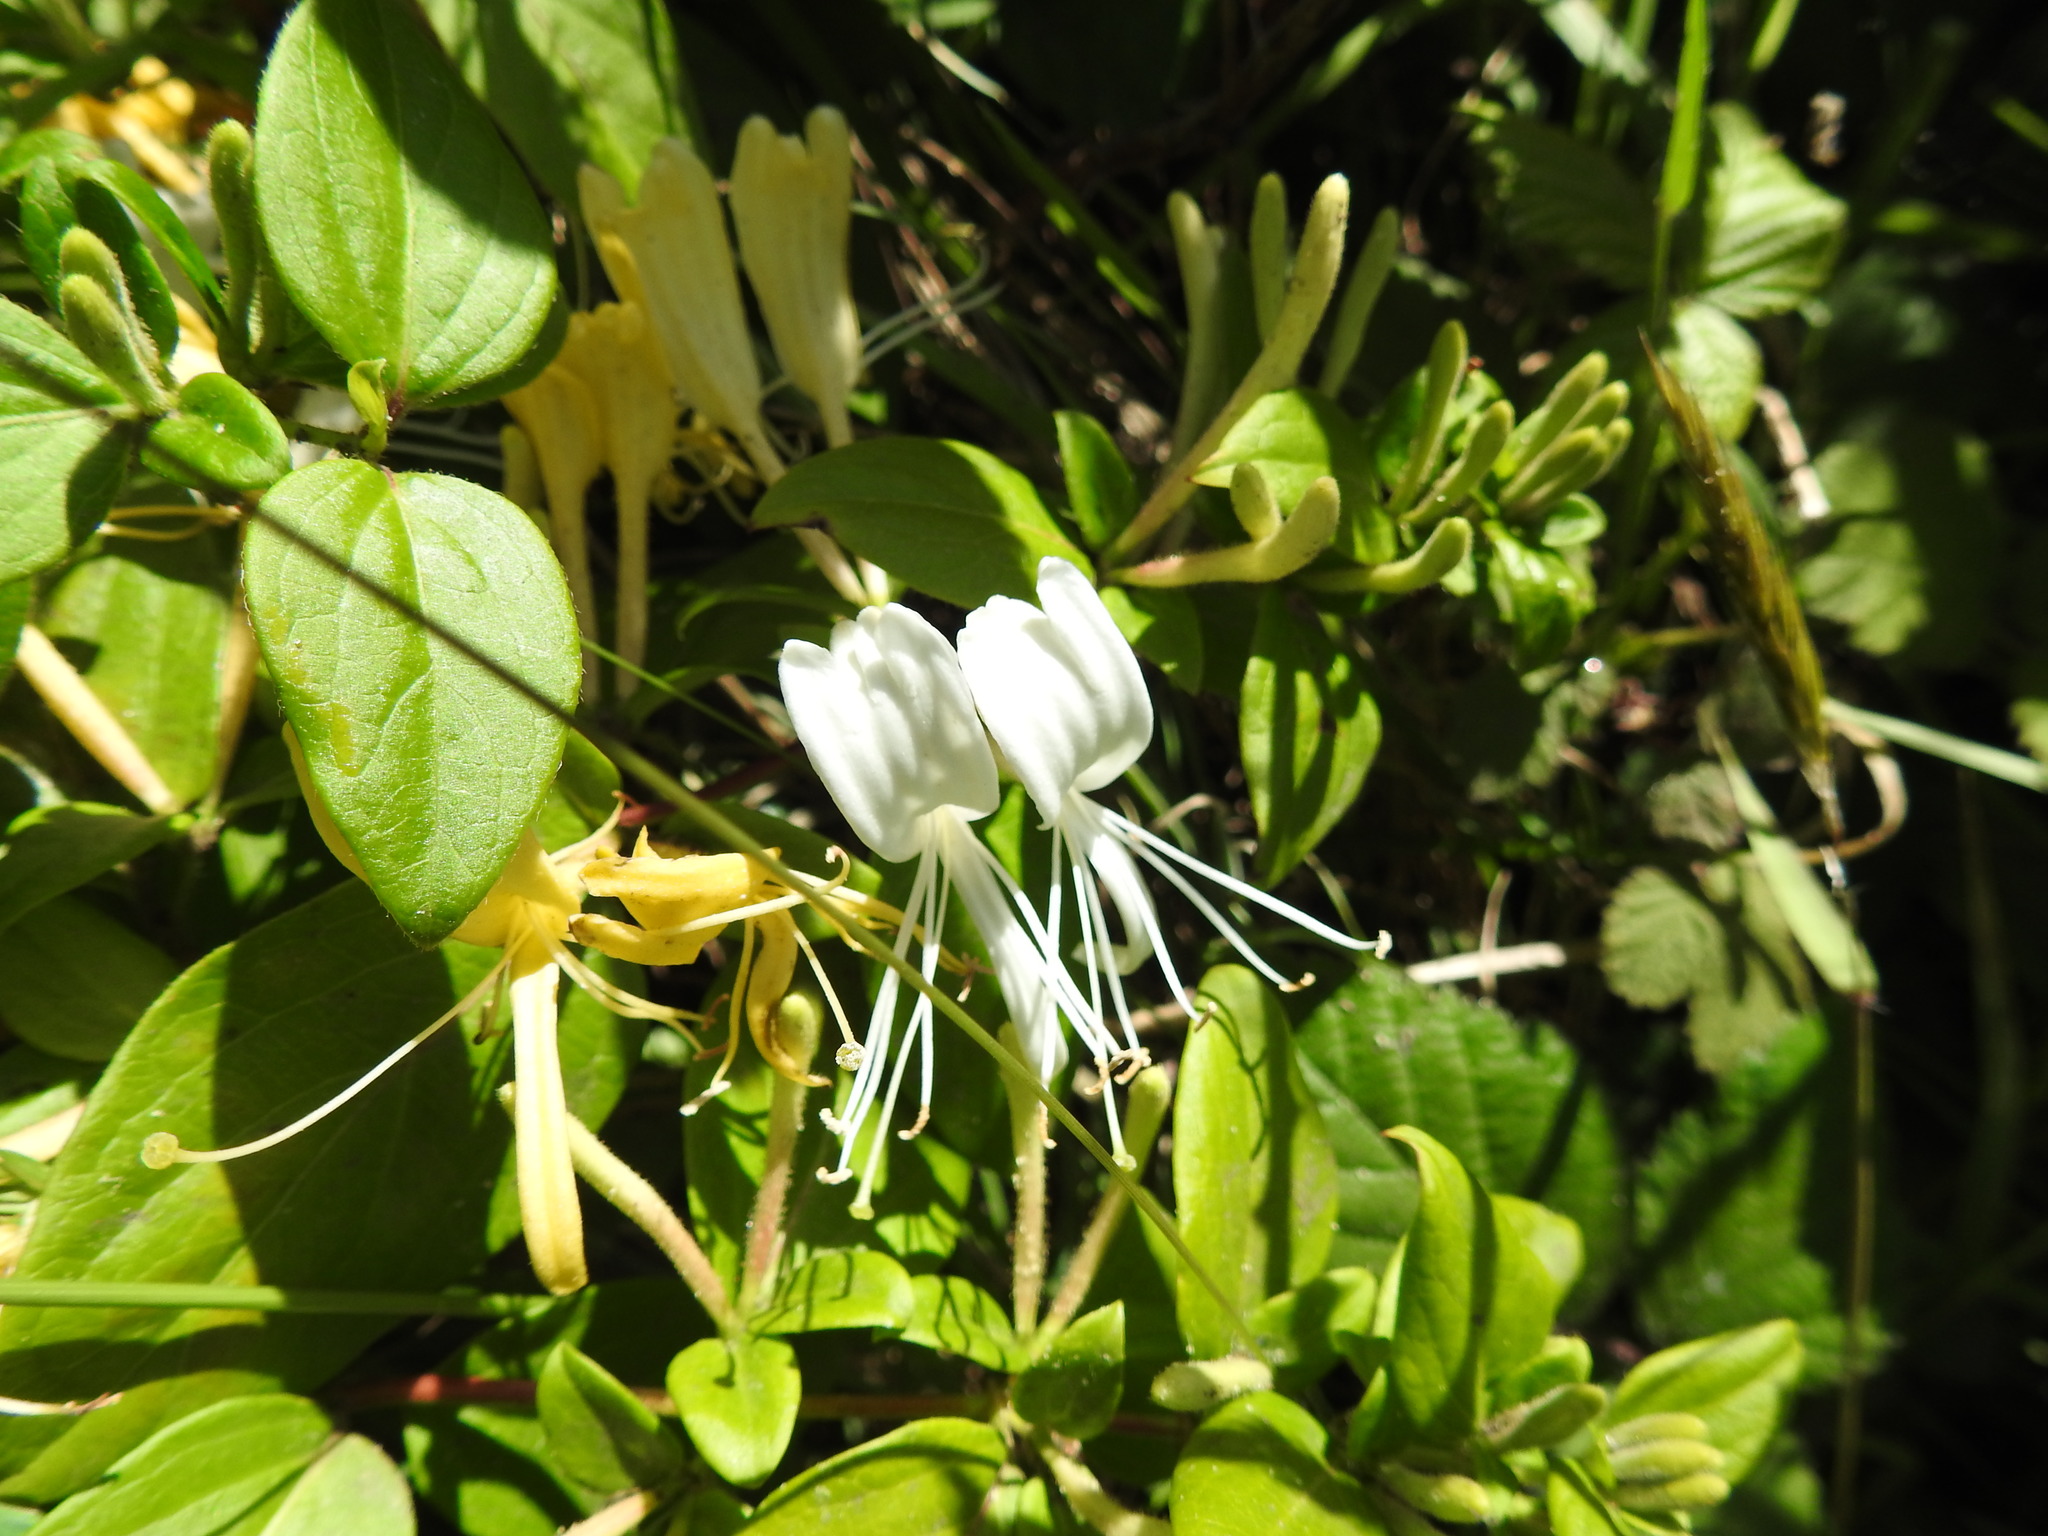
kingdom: Plantae
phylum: Tracheophyta
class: Magnoliopsida
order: Dipsacales
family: Caprifoliaceae
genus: Lonicera
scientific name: Lonicera japonica
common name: Japanese honeysuckle
